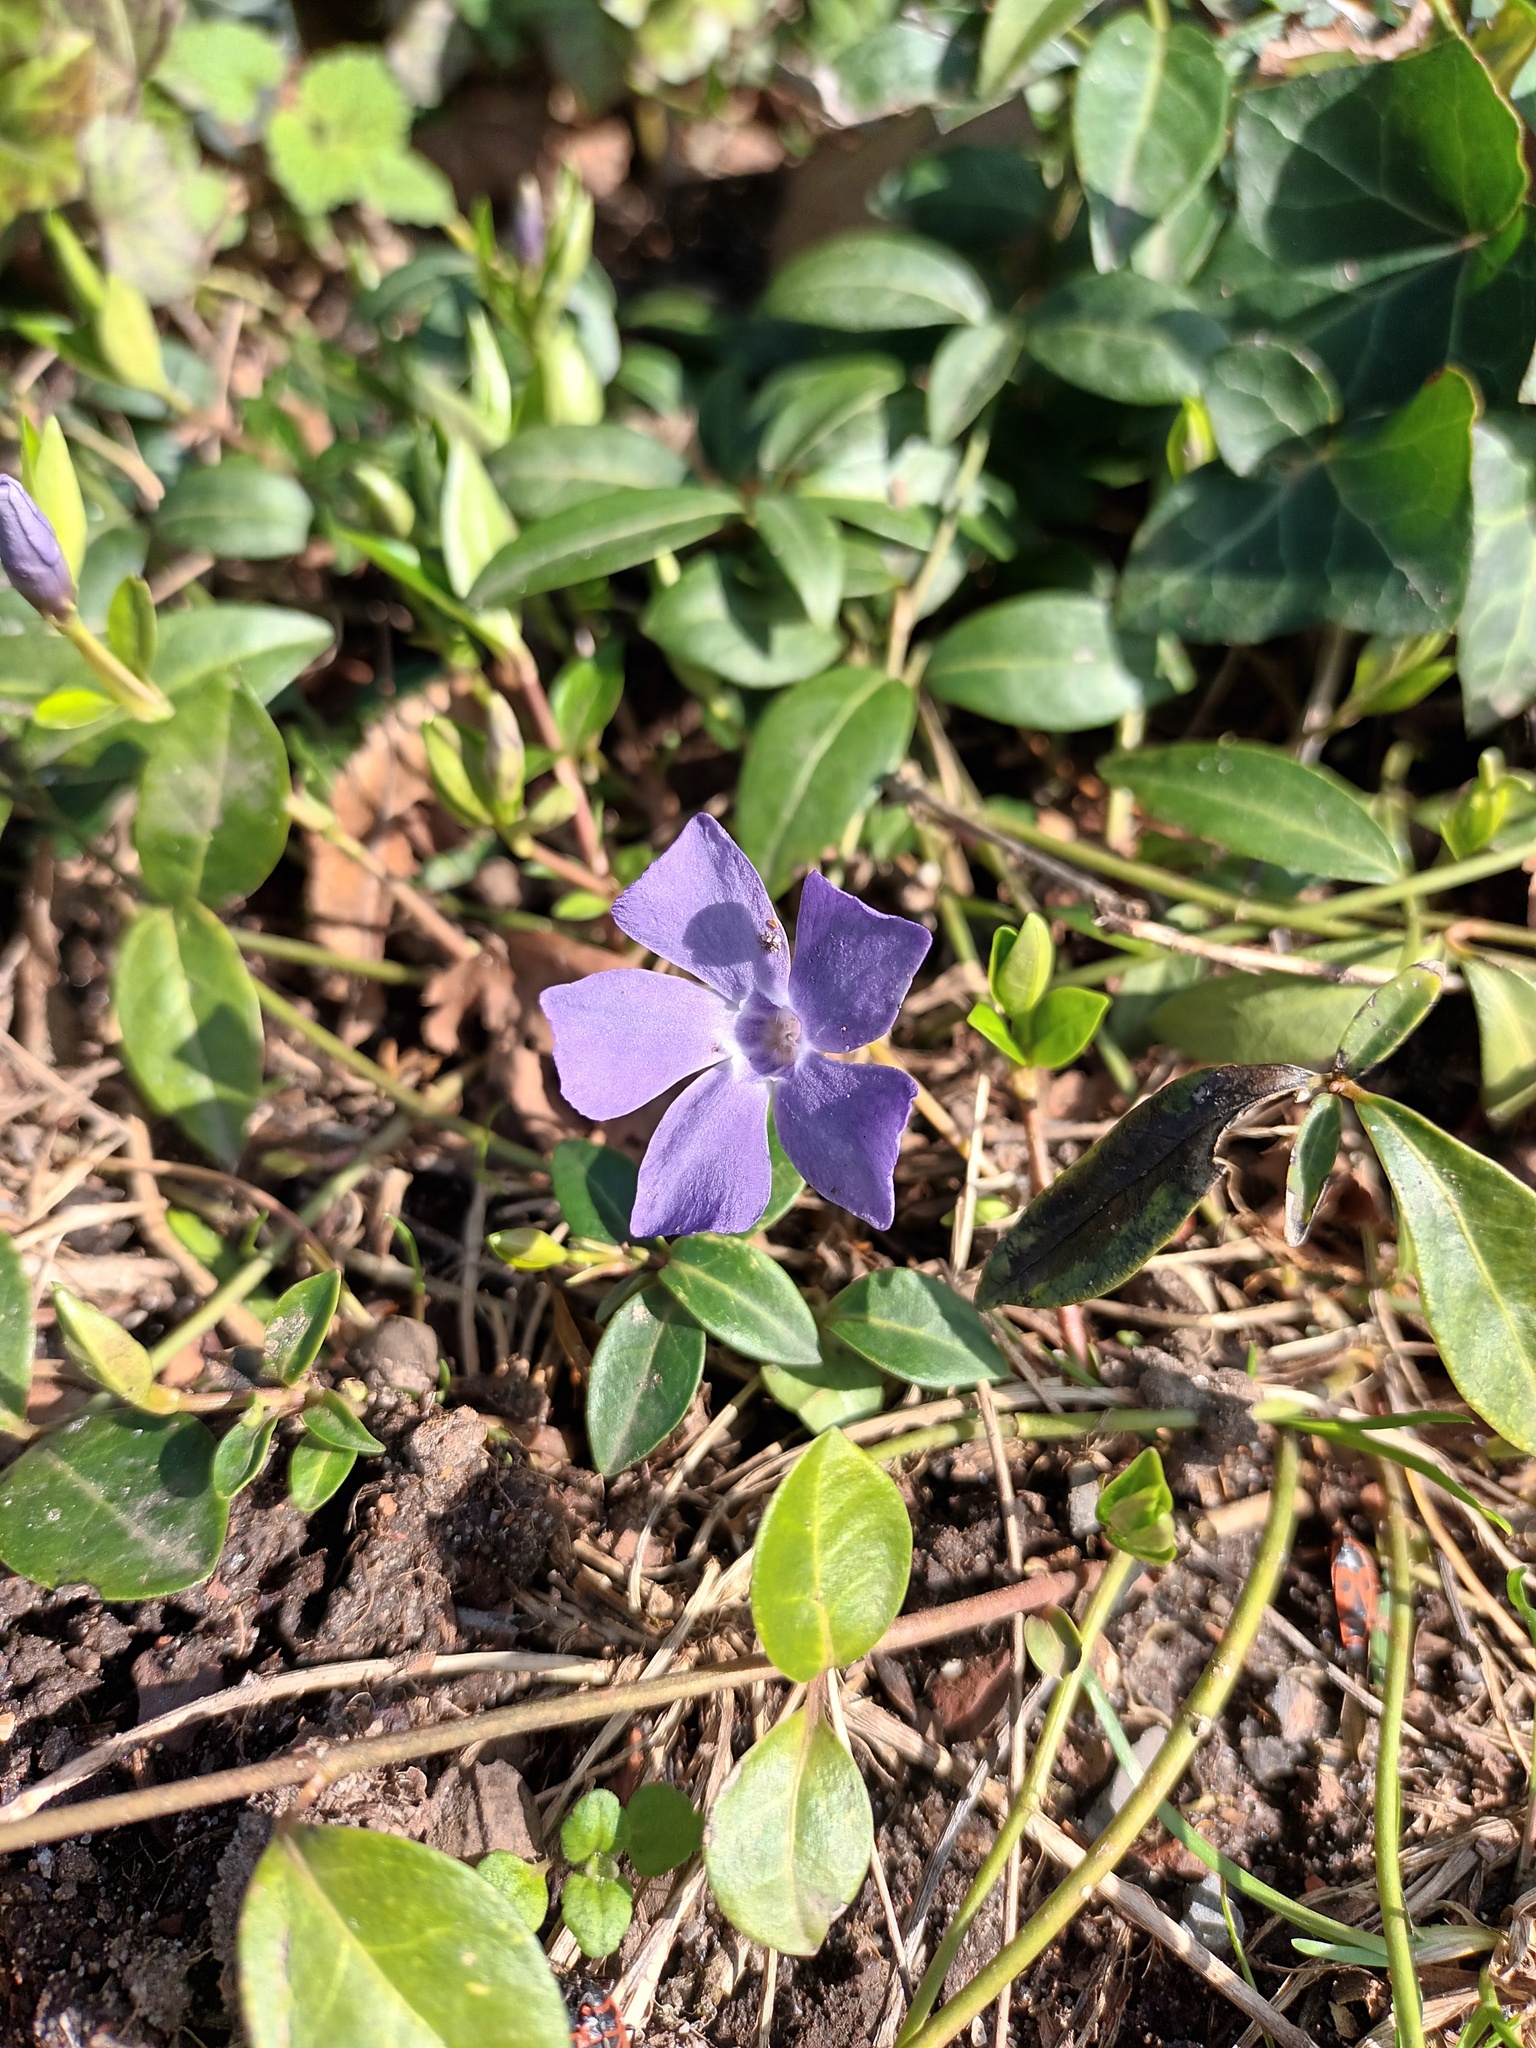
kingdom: Plantae
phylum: Tracheophyta
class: Magnoliopsida
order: Gentianales
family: Apocynaceae
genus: Vinca
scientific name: Vinca minor
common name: Lesser periwinkle
